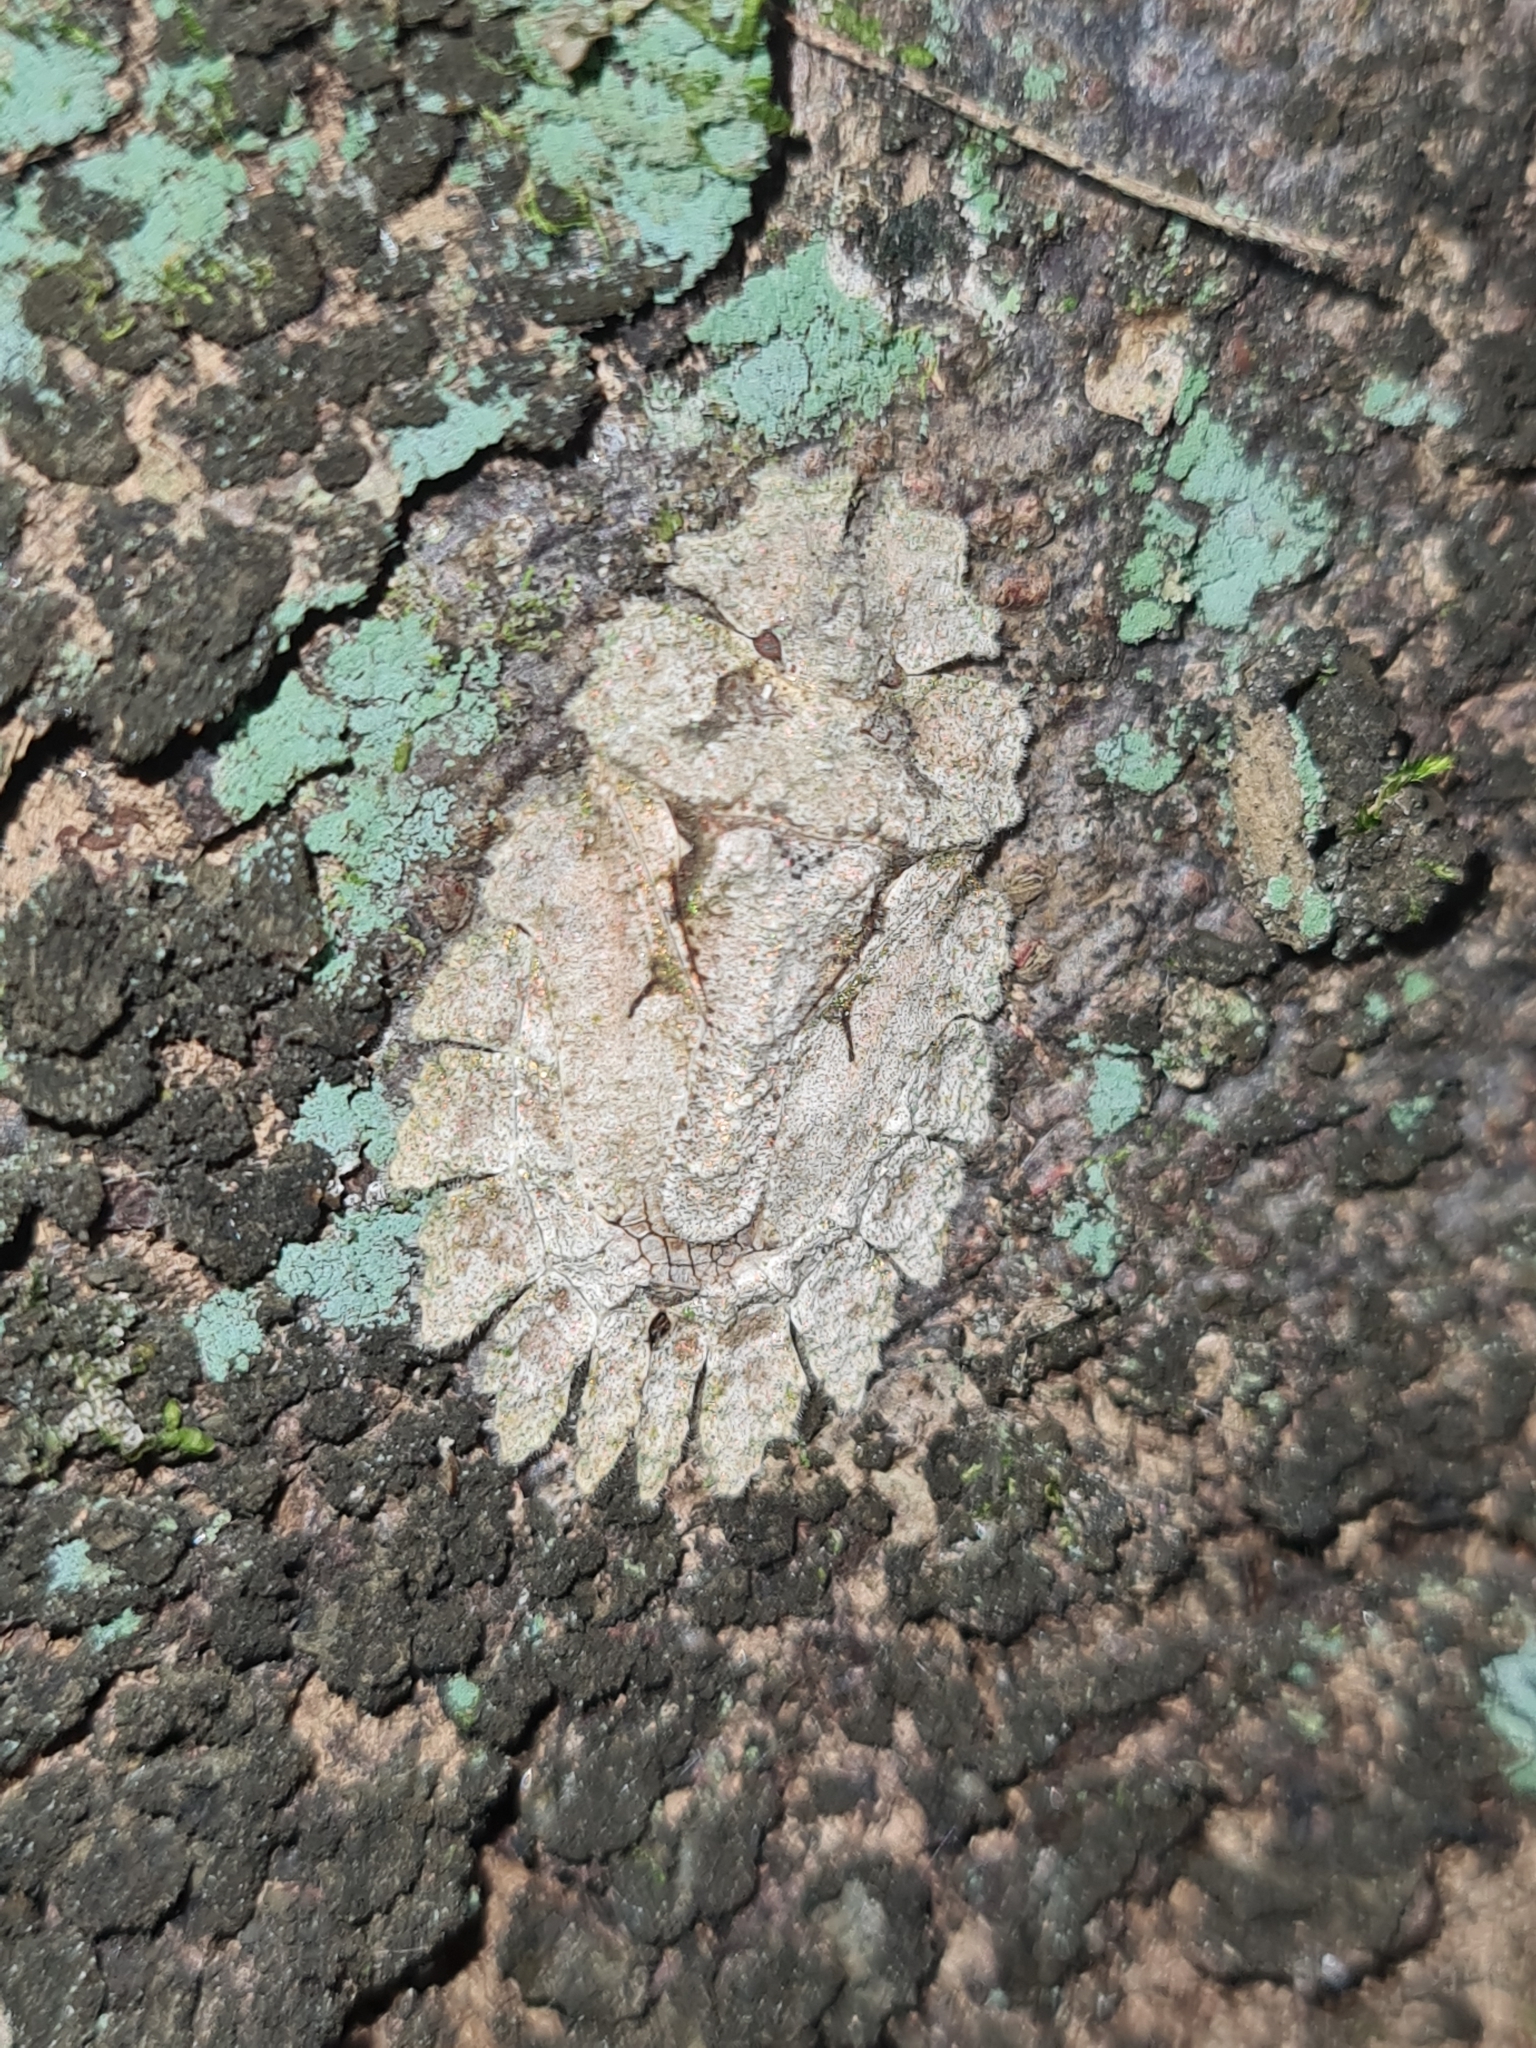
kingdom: Animalia
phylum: Arthropoda
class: Insecta
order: Hemiptera
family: Phloeidae
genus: Phloeophana
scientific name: Phloeophana longirostris
